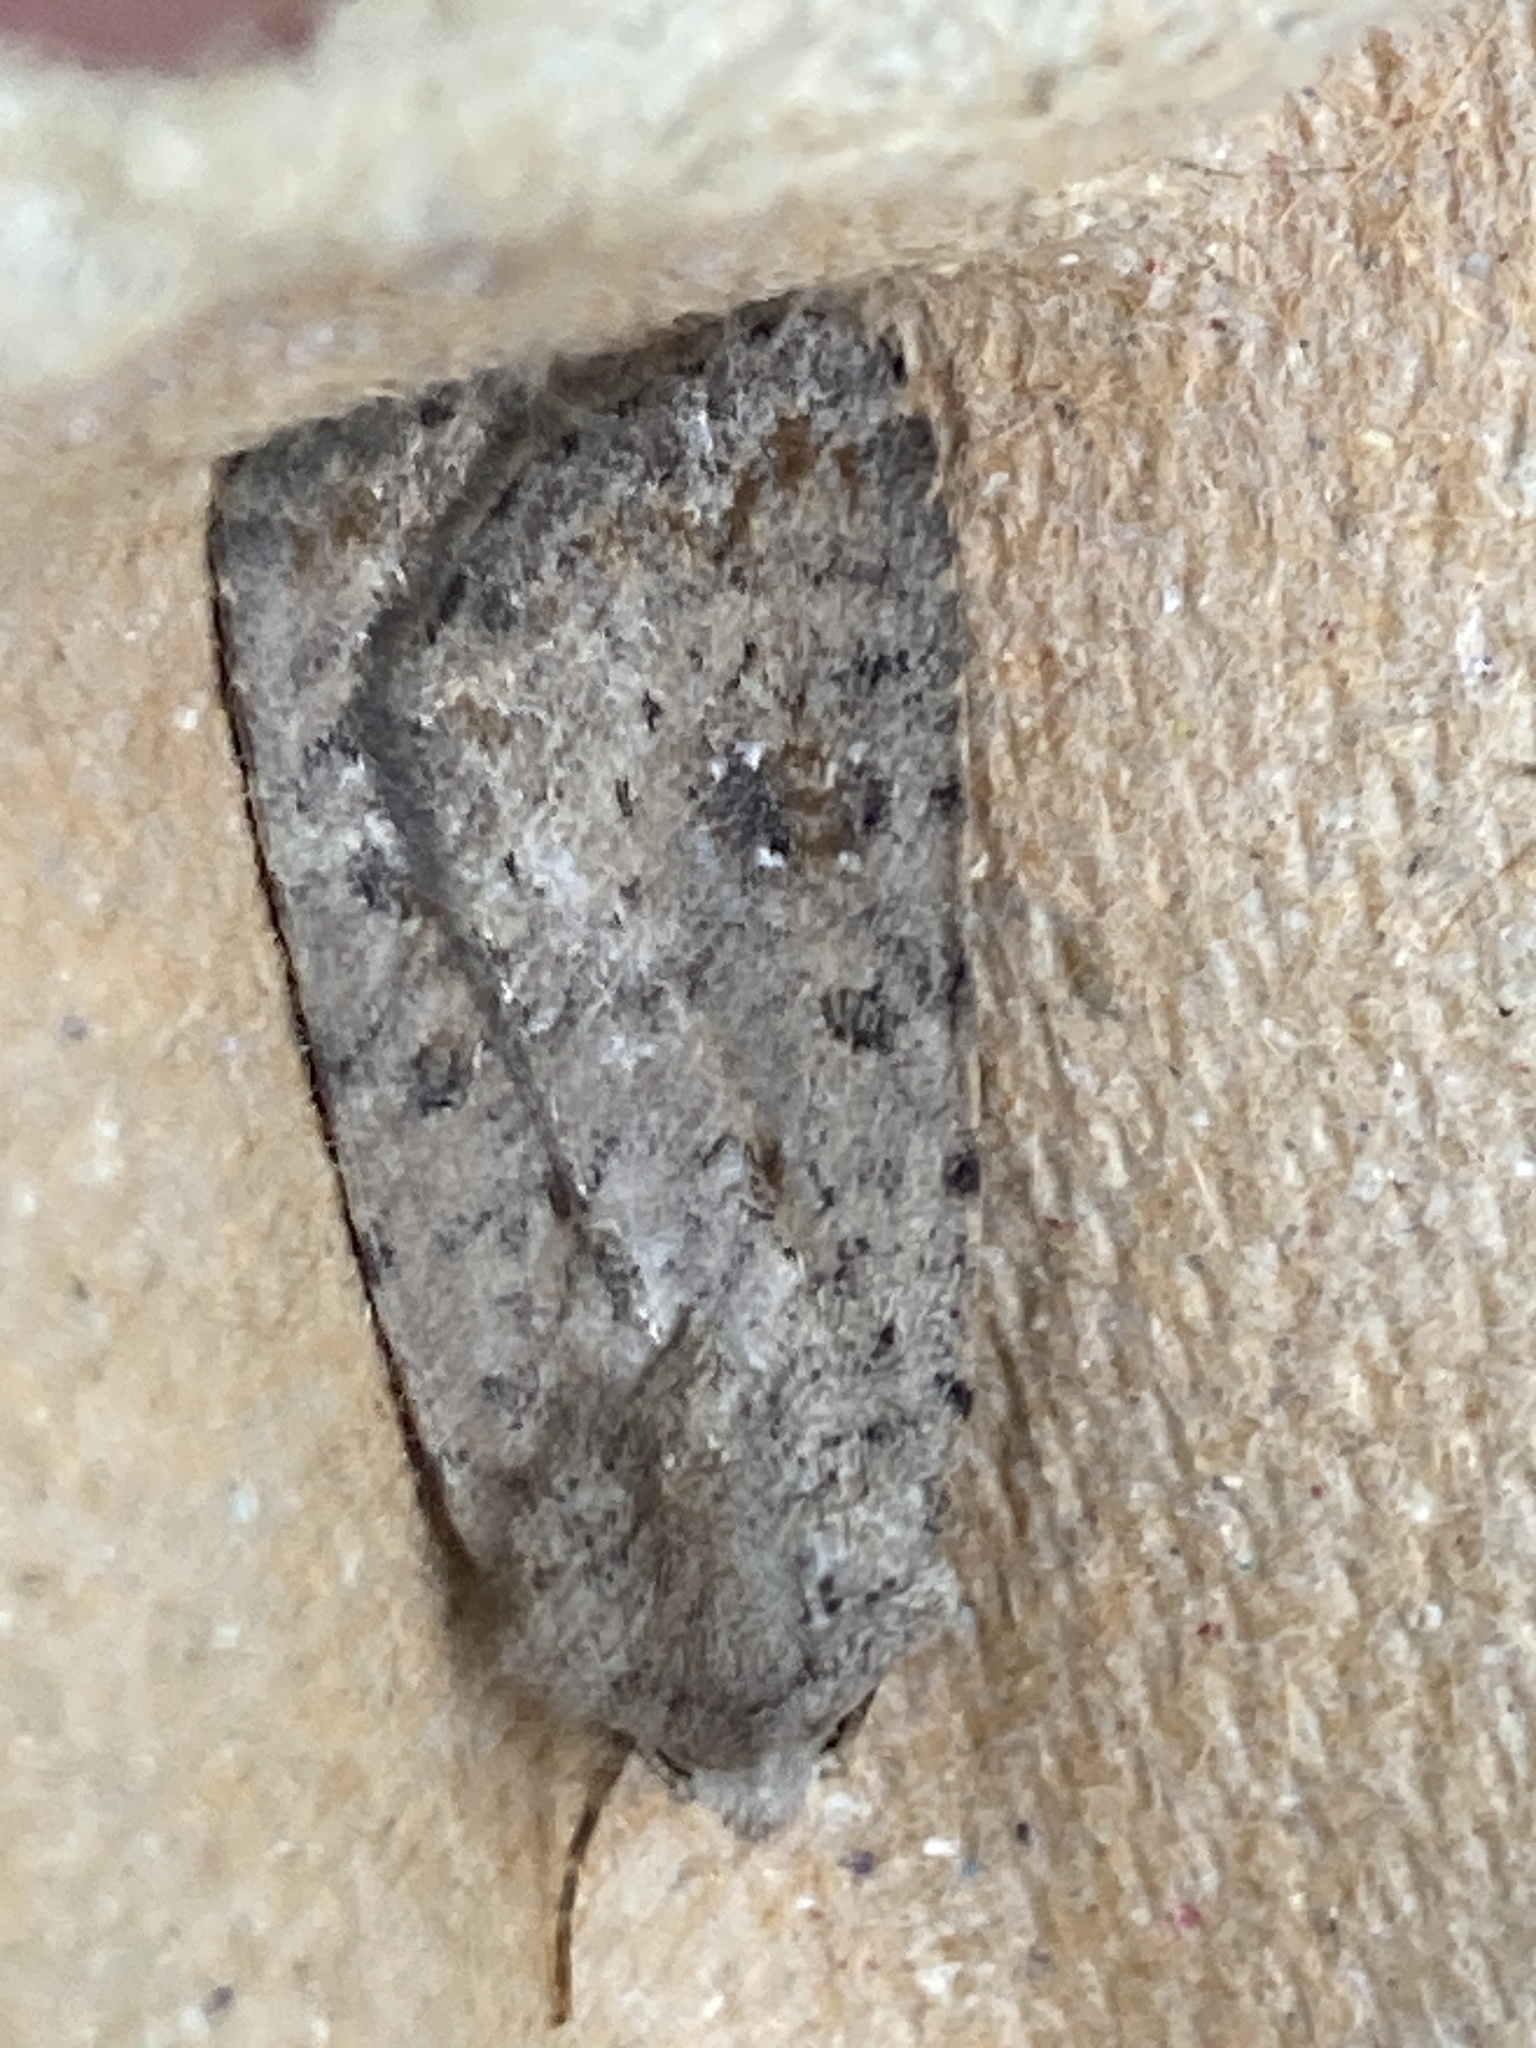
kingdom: Animalia
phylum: Arthropoda
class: Insecta
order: Lepidoptera
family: Noctuidae
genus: Caradrina
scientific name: Caradrina clavipalpis
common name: Pale mottled willow
